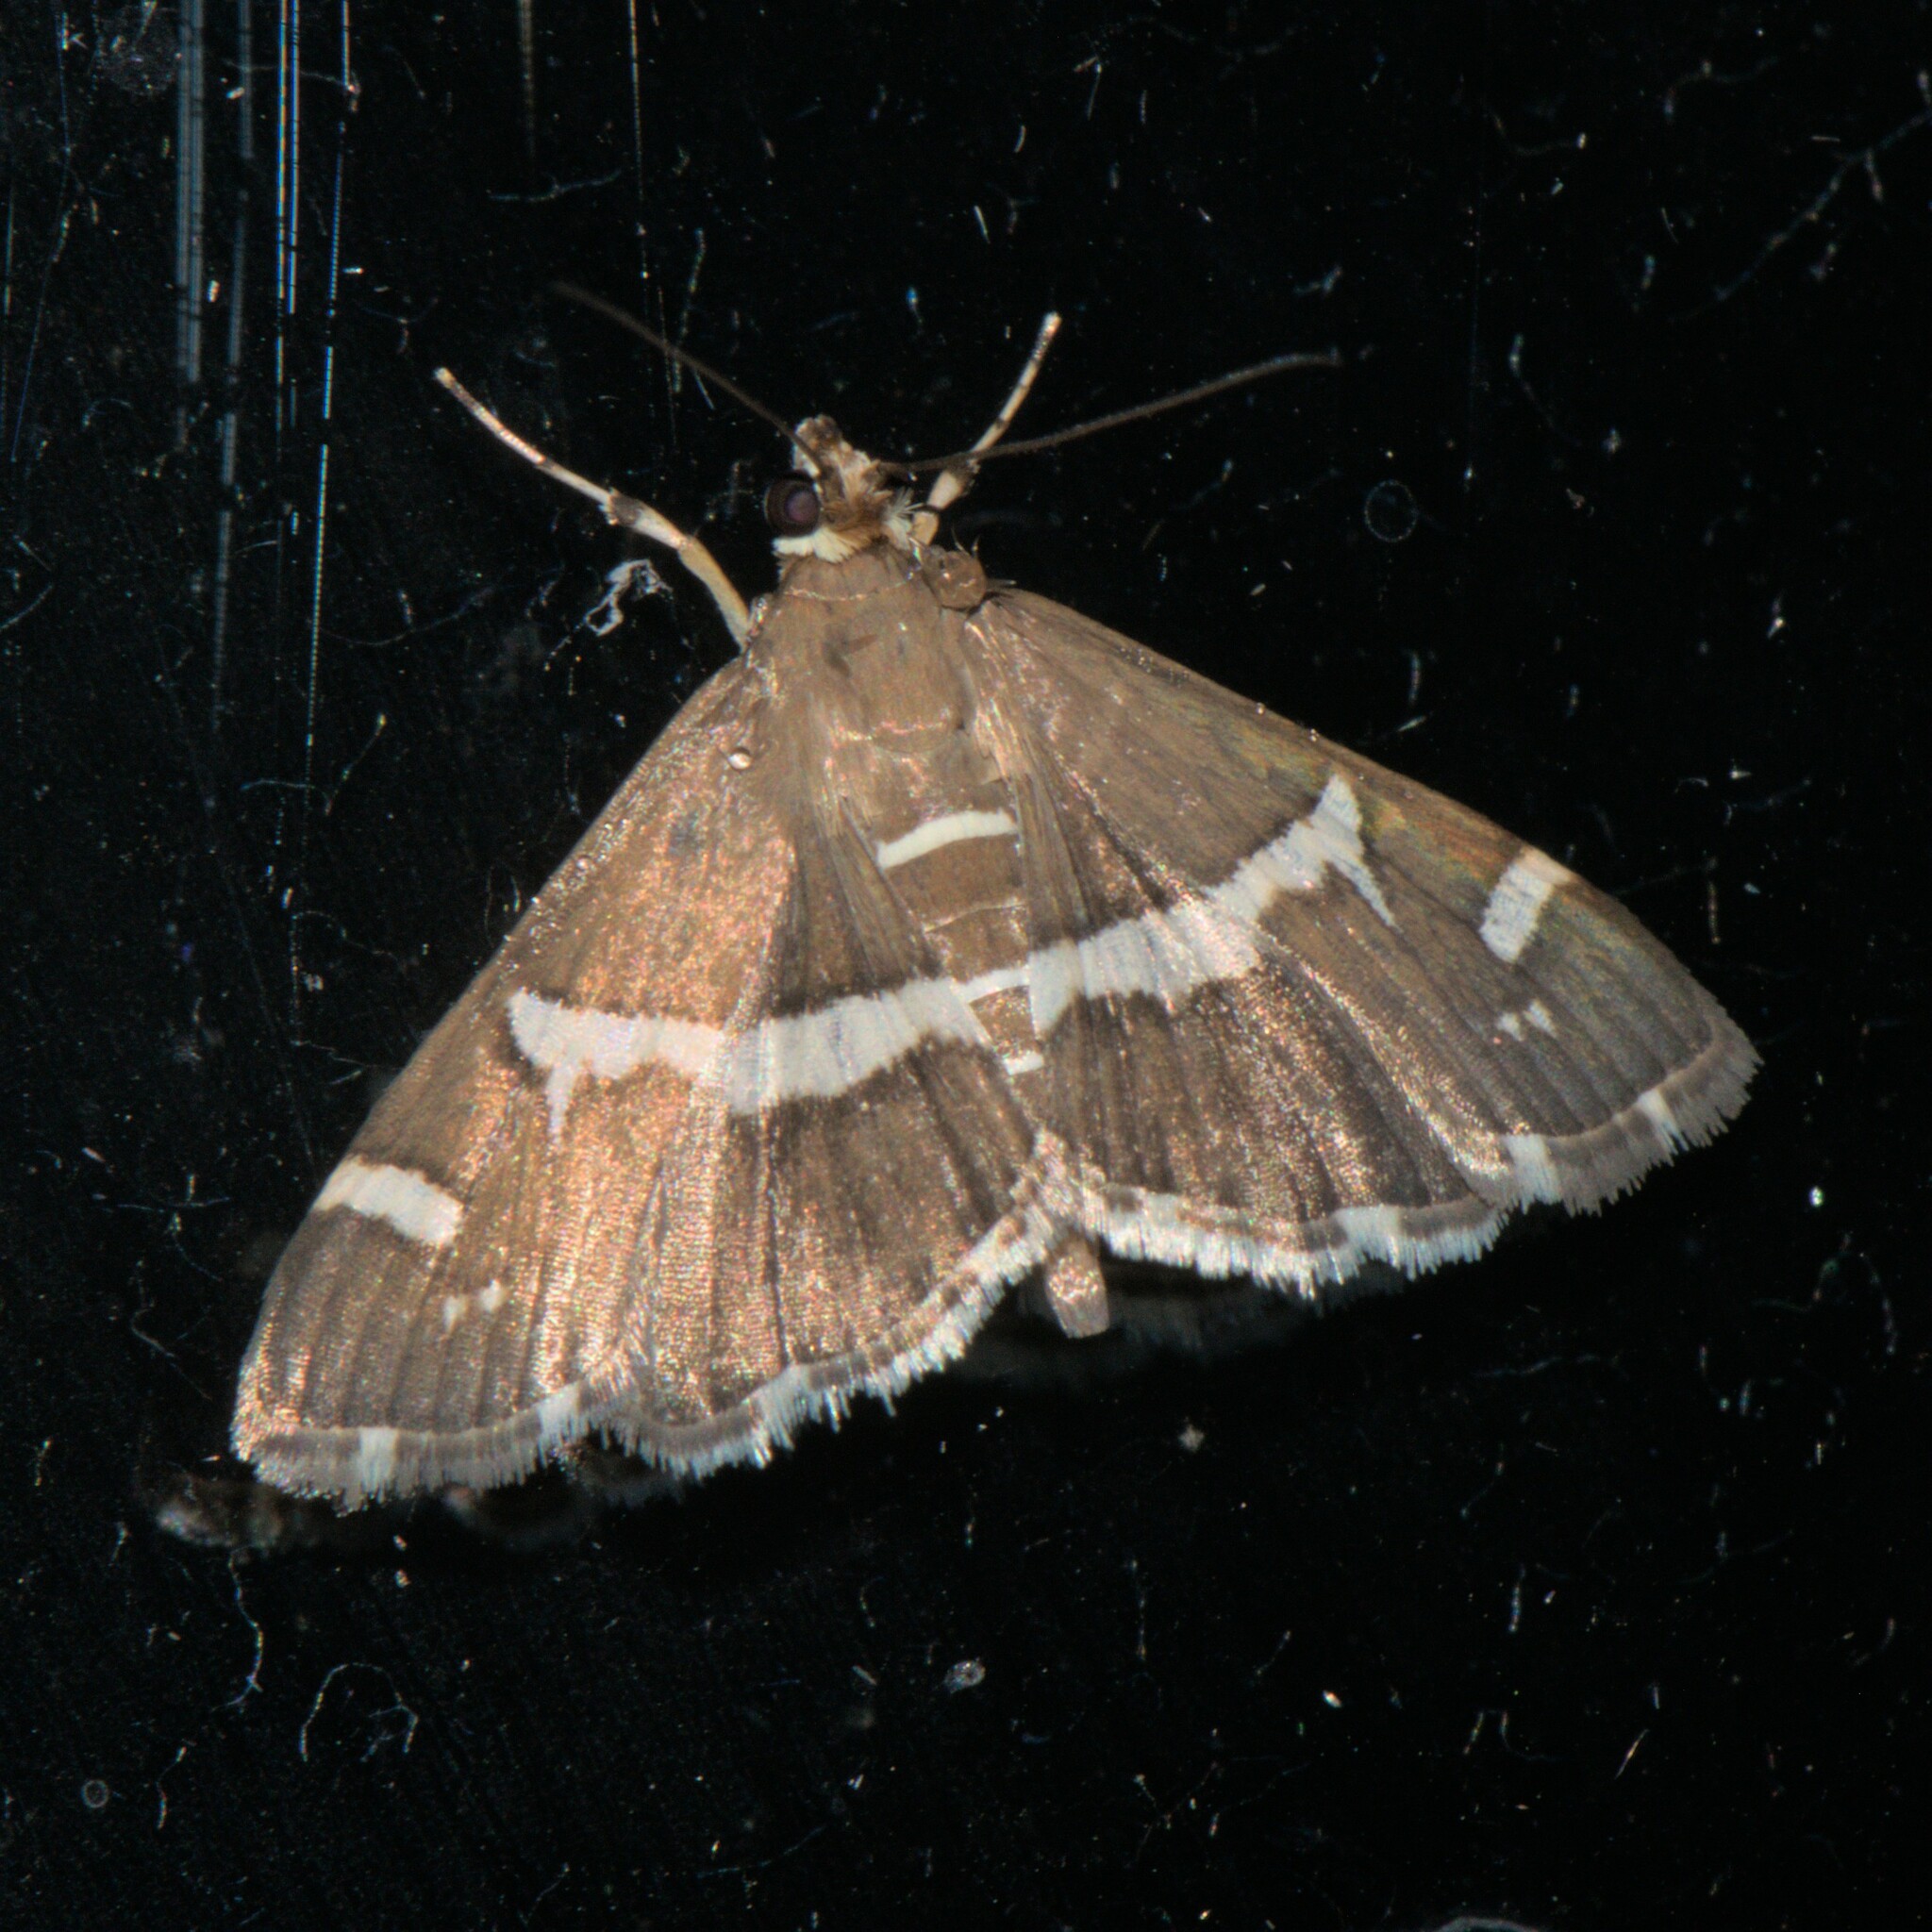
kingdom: Animalia
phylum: Arthropoda
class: Insecta
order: Lepidoptera
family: Crambidae
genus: Spoladea
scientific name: Spoladea recurvalis
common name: Beet webworm moth
